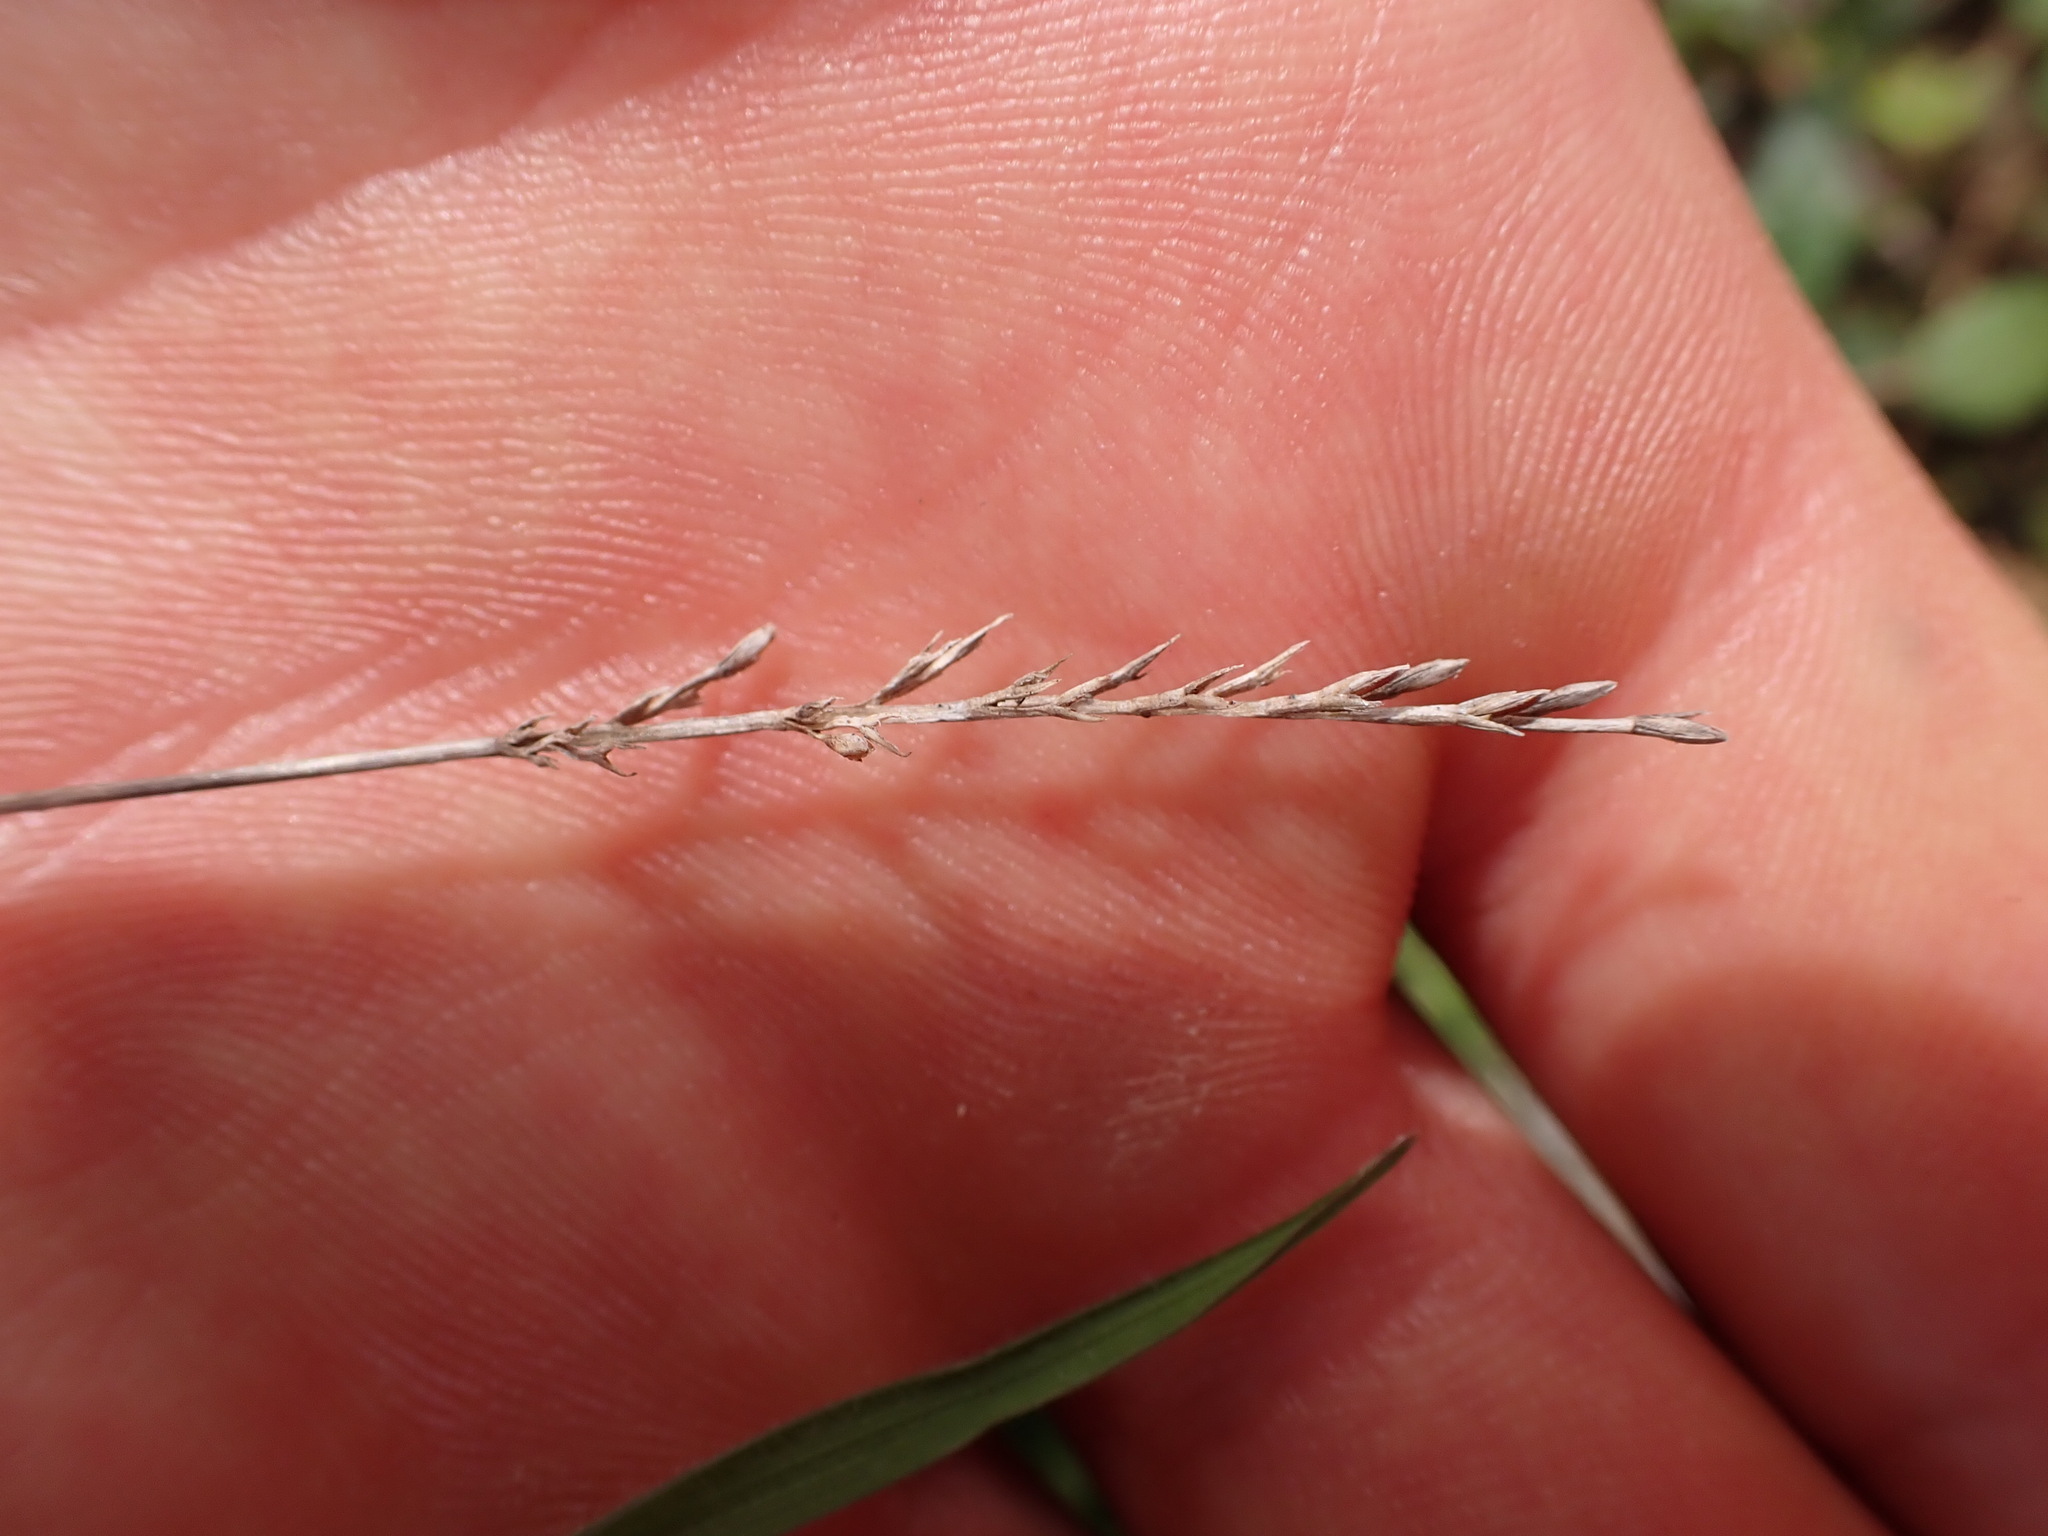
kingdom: Plantae
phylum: Tracheophyta
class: Liliopsida
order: Poales
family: Poaceae
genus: Catapodium
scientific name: Catapodium rigidum
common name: Fern-grass
